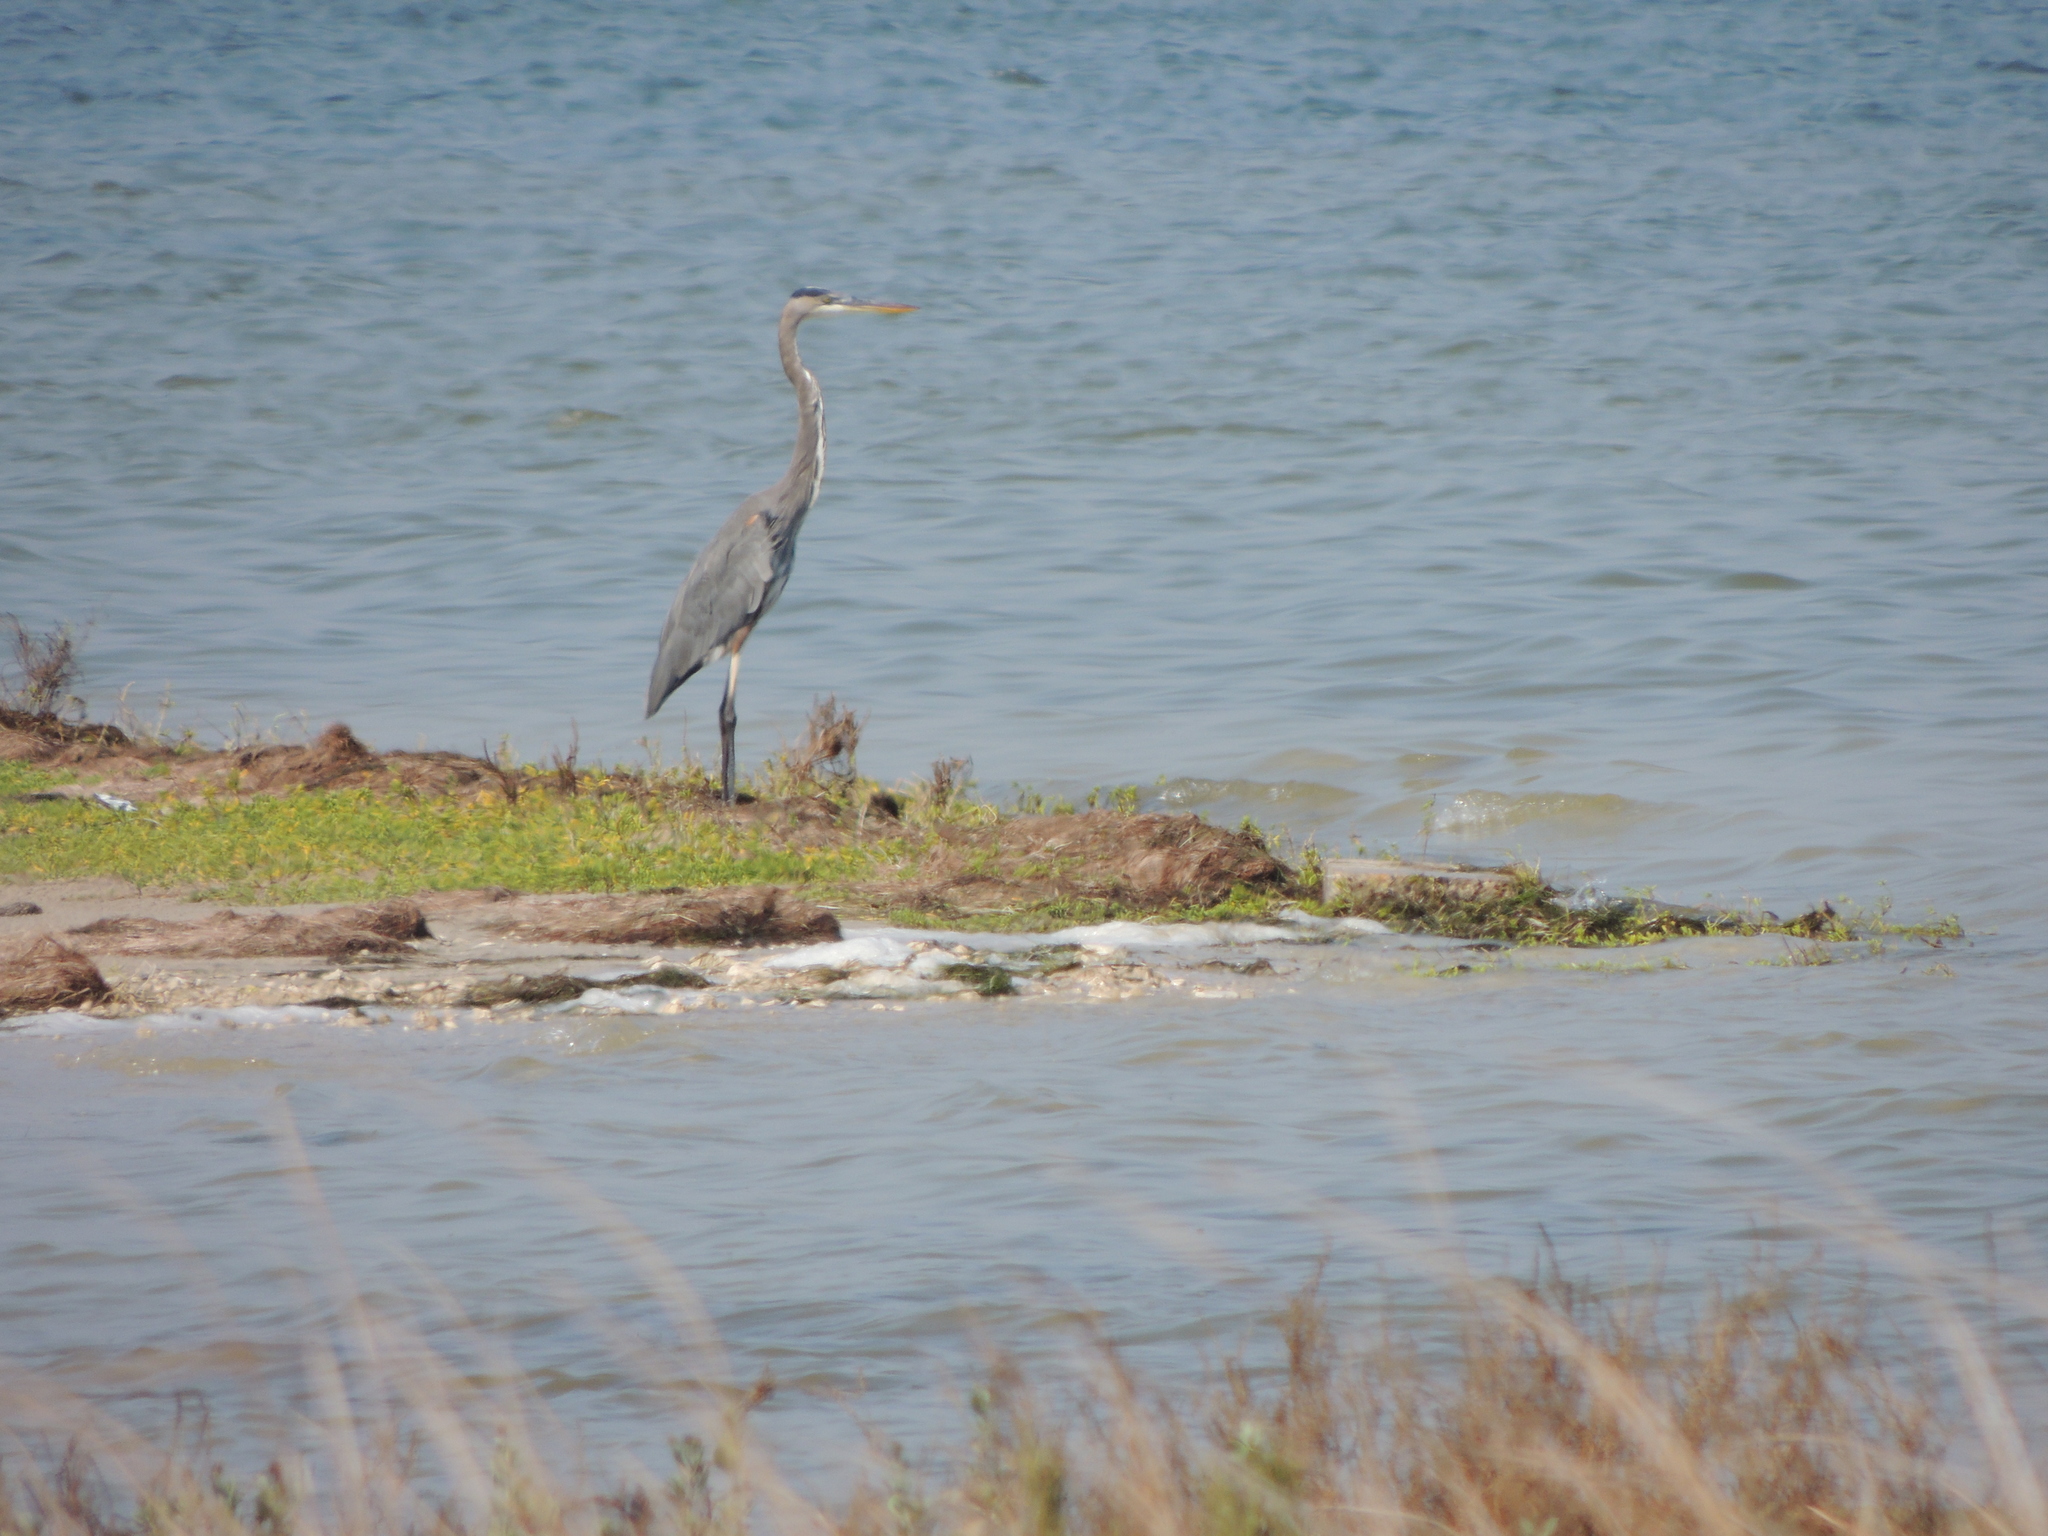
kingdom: Animalia
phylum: Chordata
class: Aves
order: Pelecaniformes
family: Ardeidae
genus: Ardea
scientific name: Ardea herodias
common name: Great blue heron
